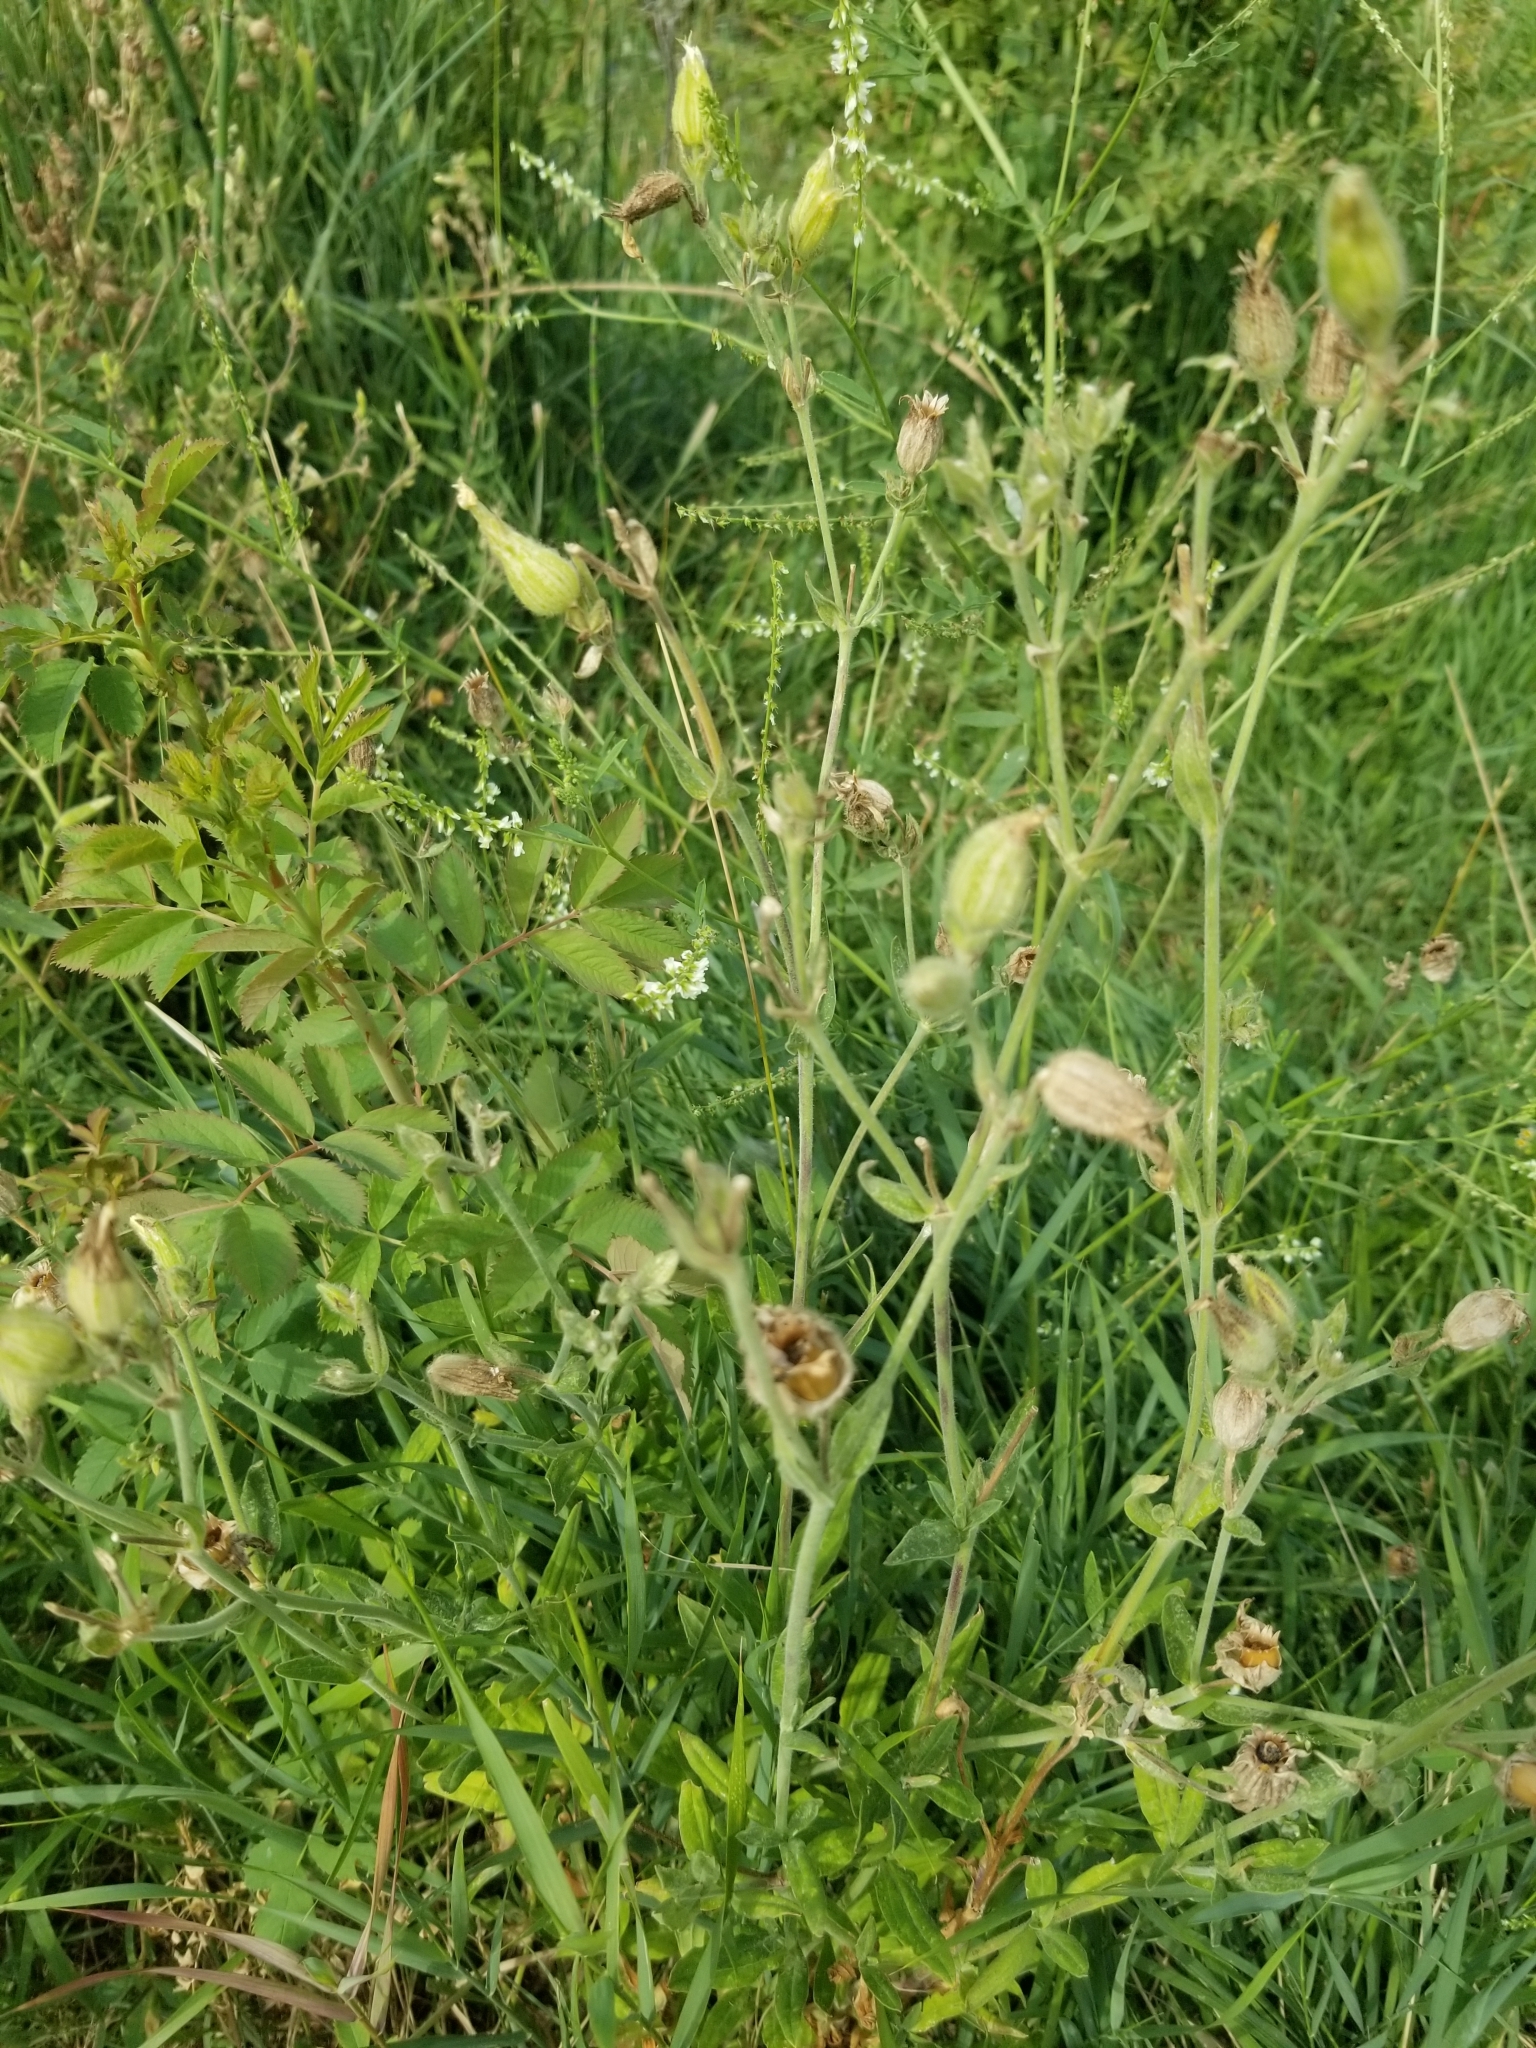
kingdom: Plantae
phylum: Tracheophyta
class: Magnoliopsida
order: Caryophyllales
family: Caryophyllaceae
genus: Silene
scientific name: Silene latifolia
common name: White campion
